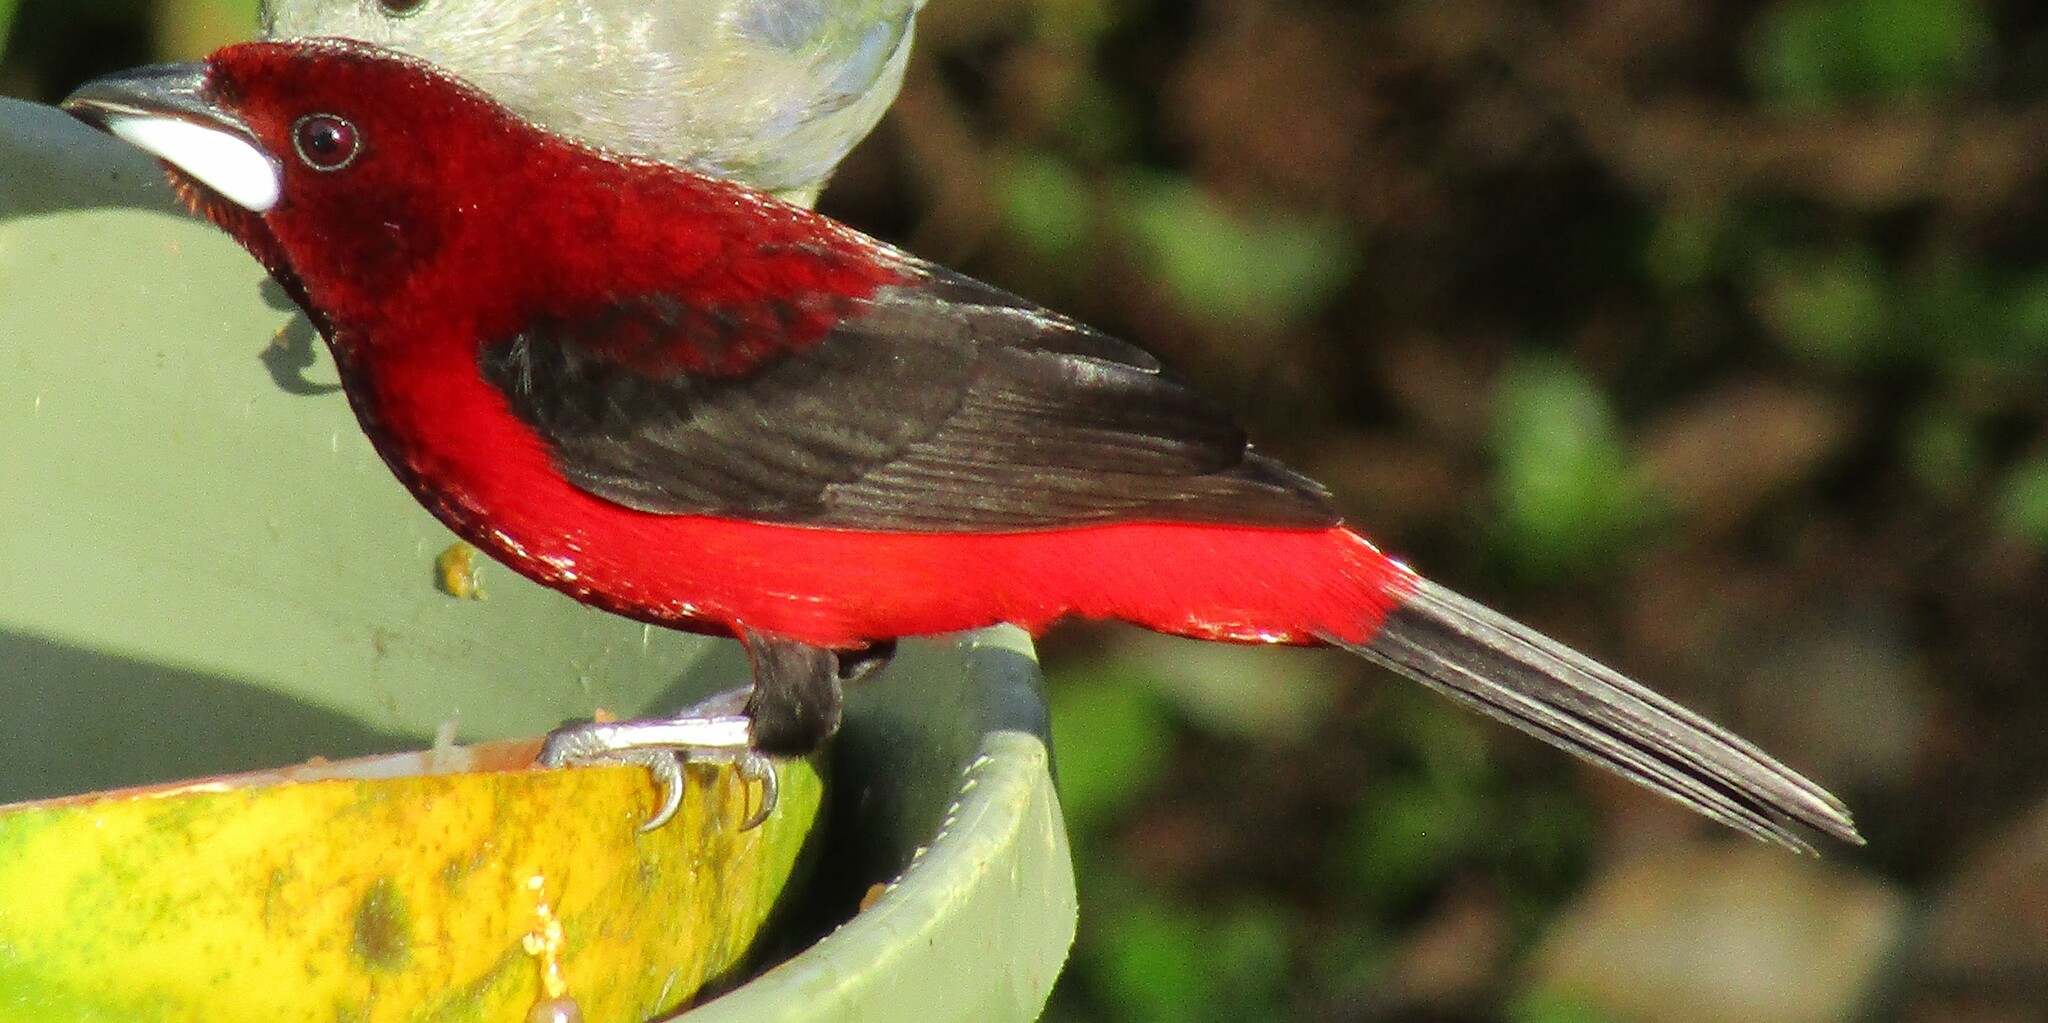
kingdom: Animalia
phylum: Chordata
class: Aves
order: Passeriformes
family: Thraupidae
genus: Ramphocelus
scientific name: Ramphocelus dimidiatus
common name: Crimson-backed tanager
